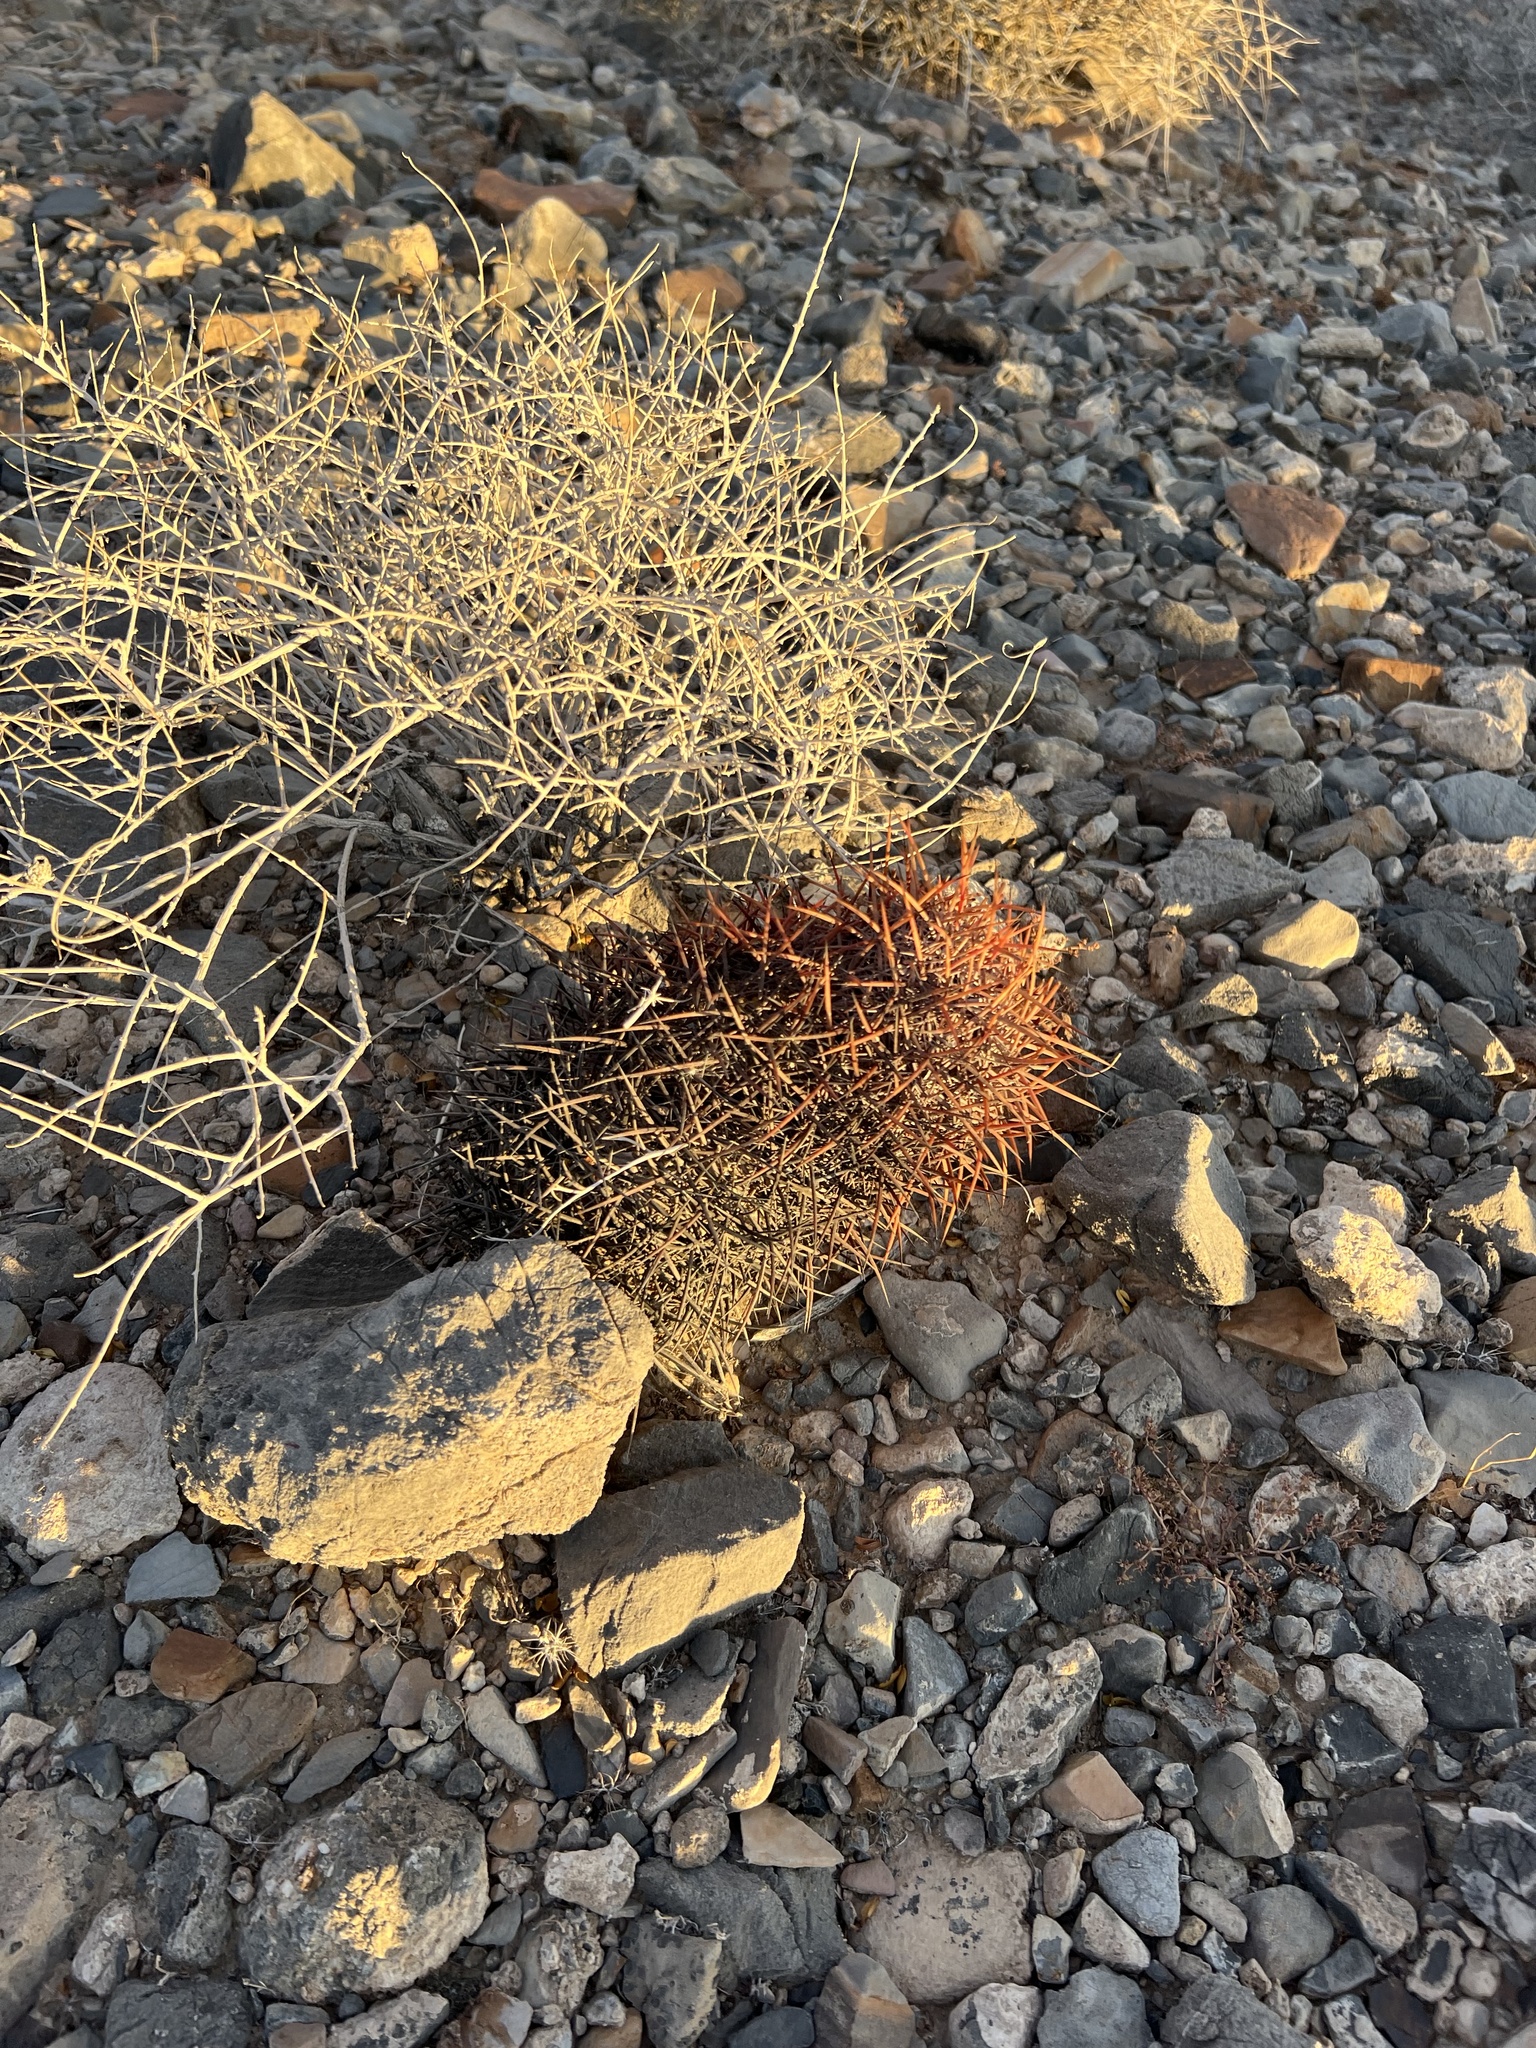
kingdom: Plantae
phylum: Tracheophyta
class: Magnoliopsida
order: Caryophyllales
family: Cactaceae
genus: Sclerocactus
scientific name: Sclerocactus johnsonii
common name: Eight-spine fishhook cactus
